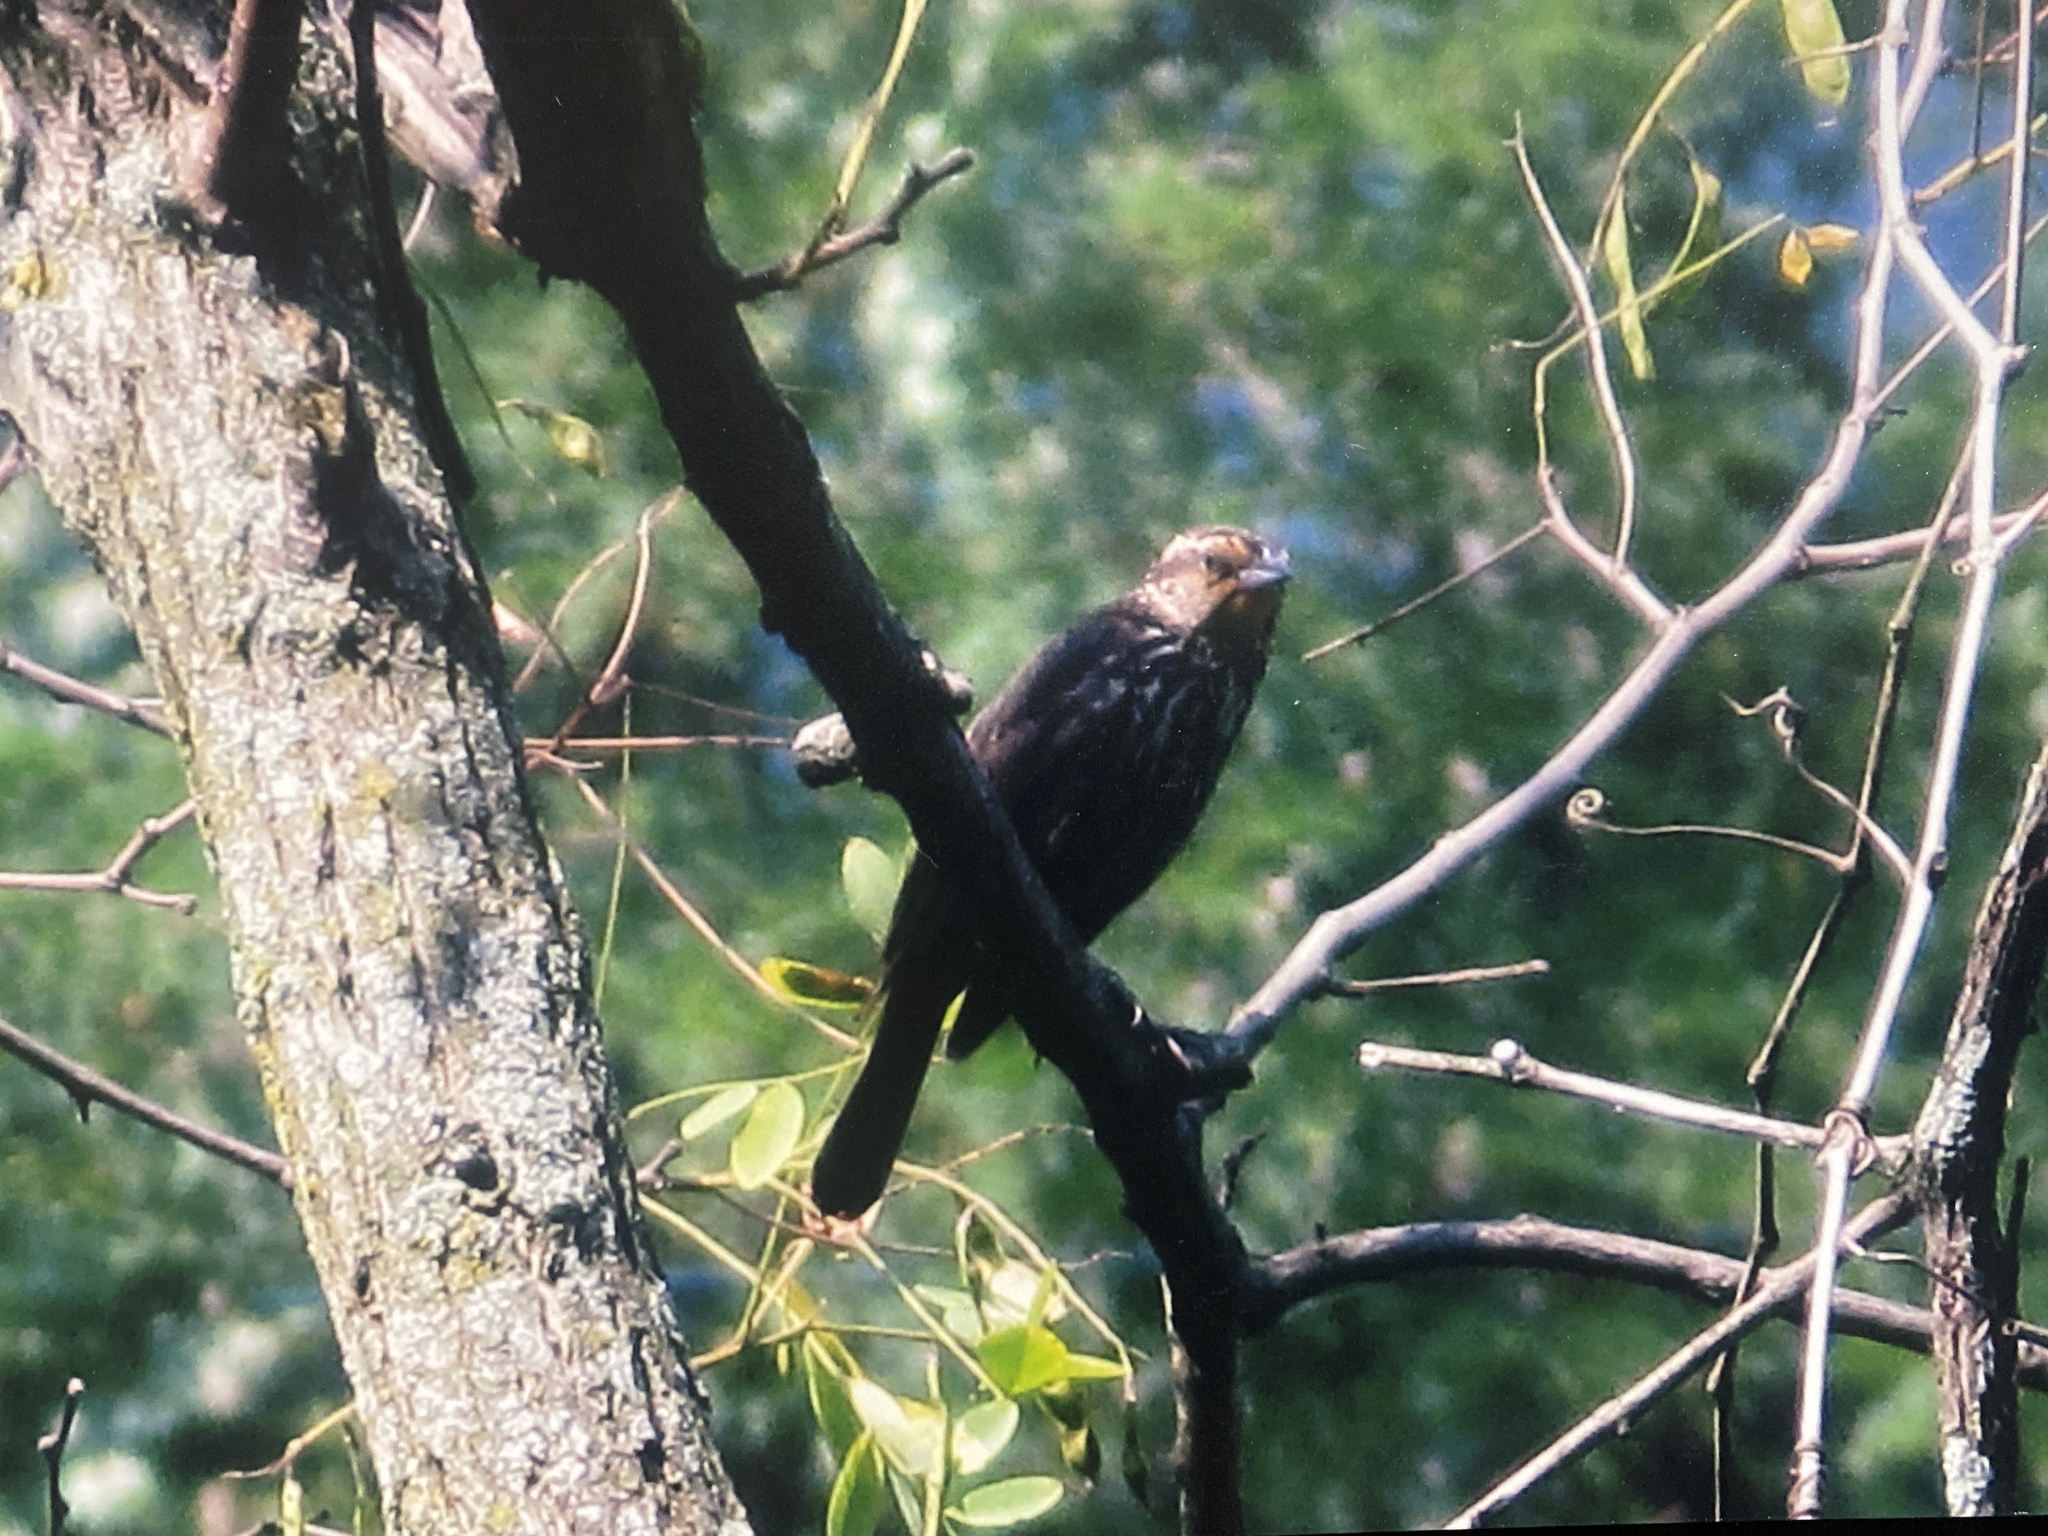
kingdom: Animalia
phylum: Chordata
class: Aves
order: Passeriformes
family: Icteridae
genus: Agelaius
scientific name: Agelaius phoeniceus
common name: Red-winged blackbird
